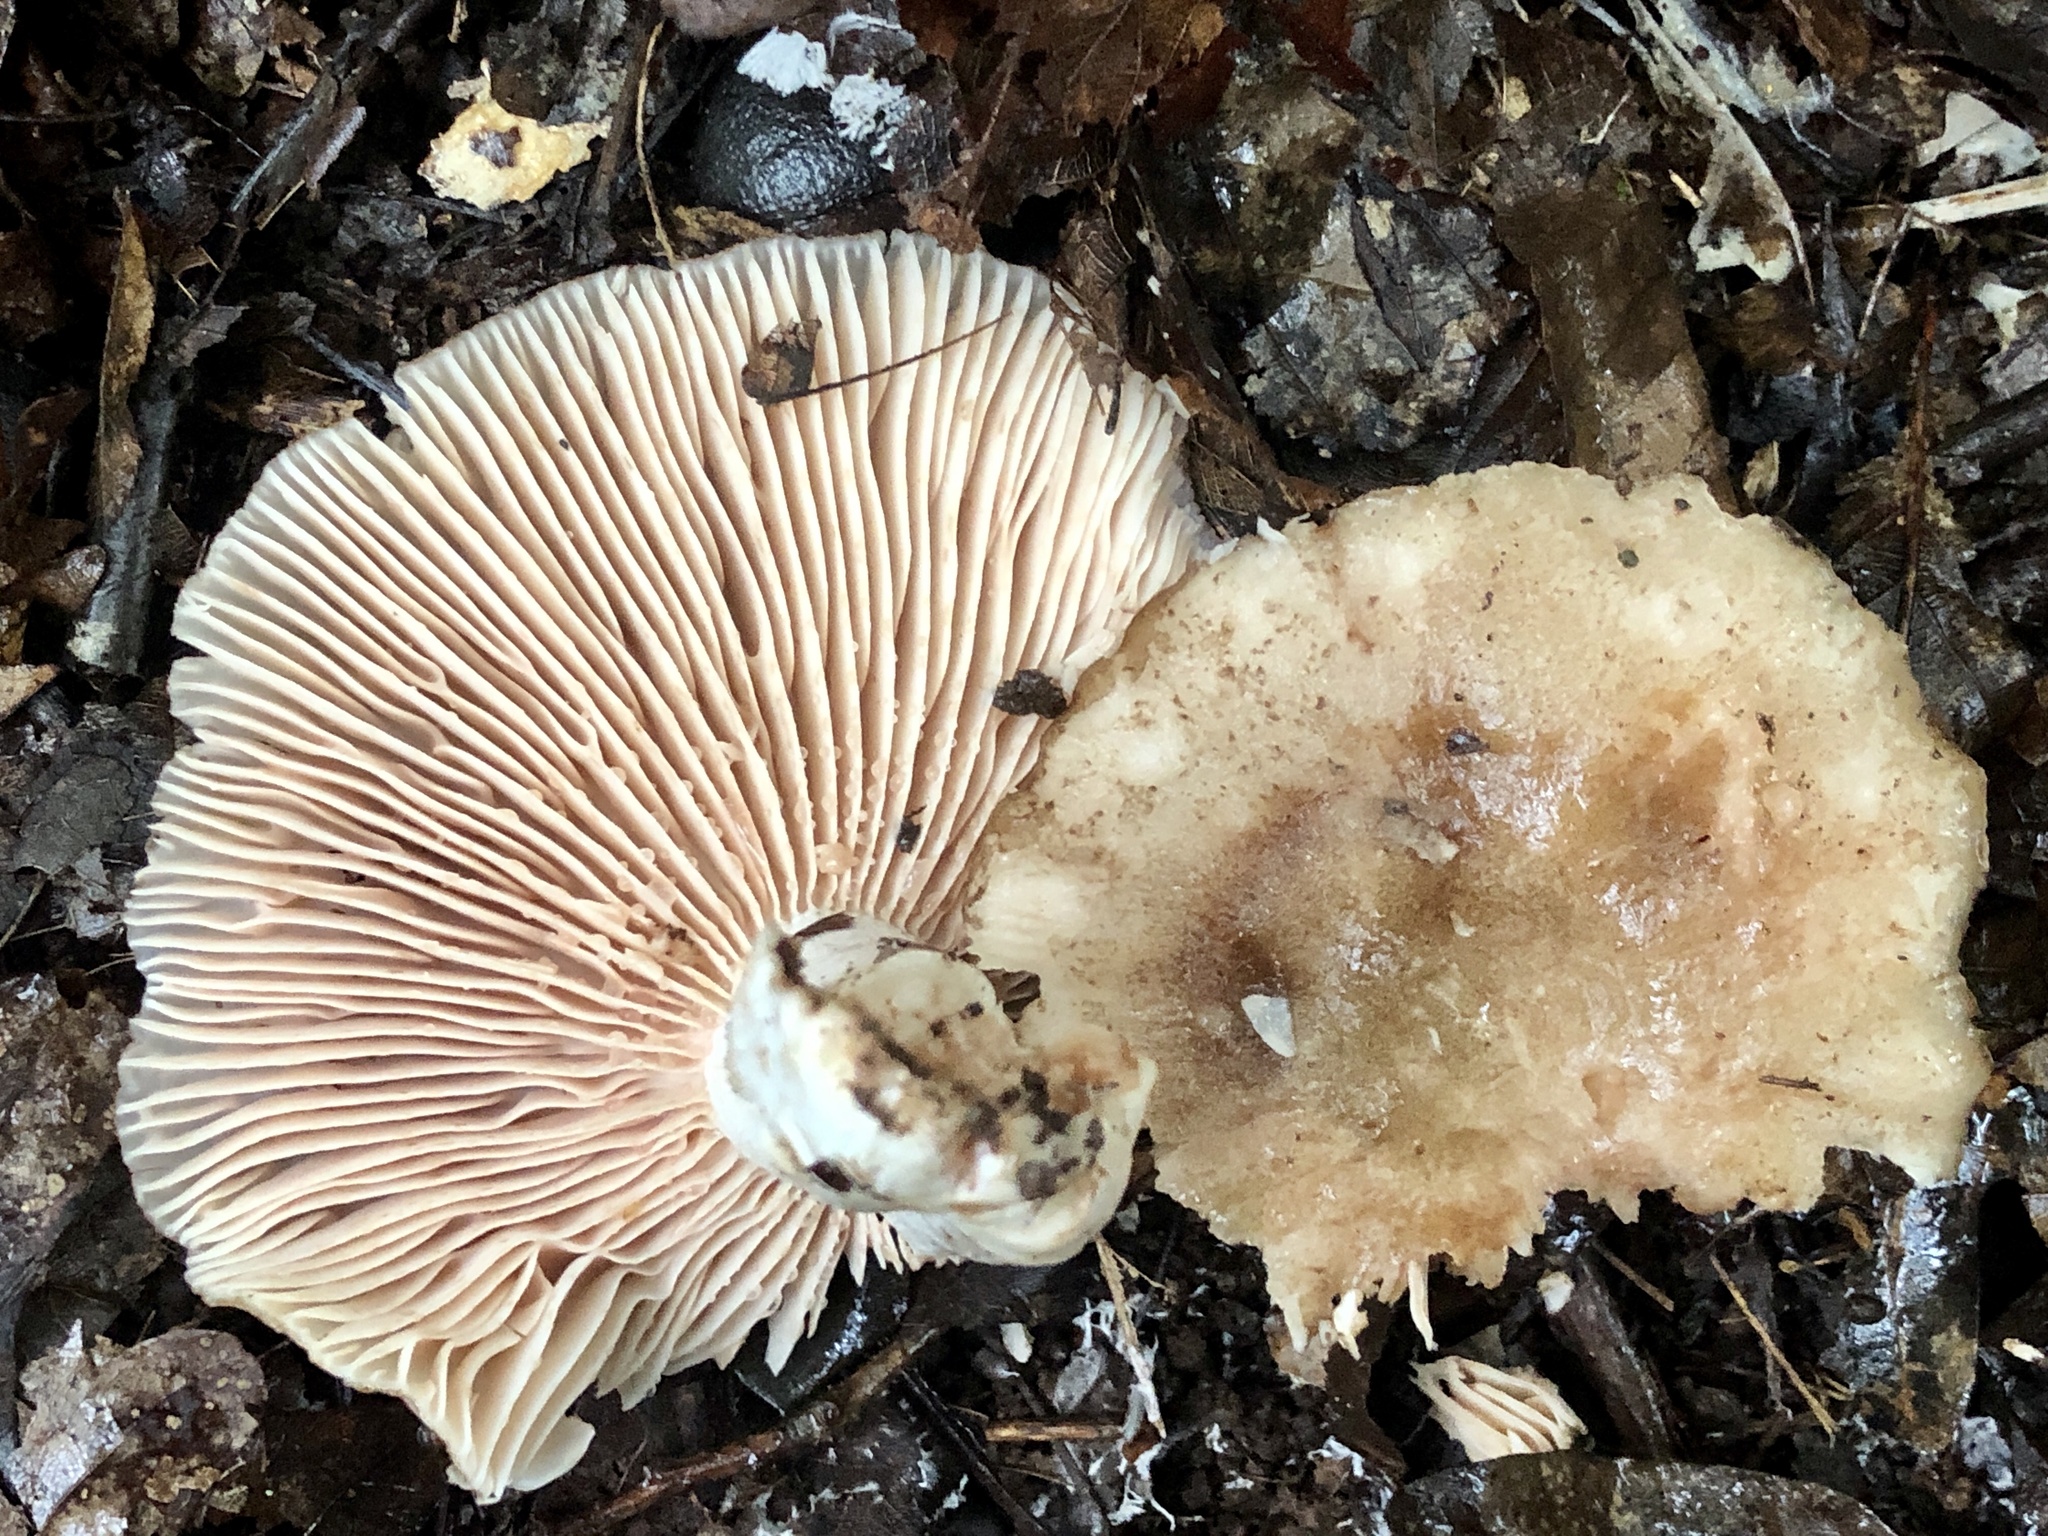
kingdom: Fungi
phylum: Basidiomycota
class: Agaricomycetes
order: Agaricales
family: Entolomataceae
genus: Entoloma
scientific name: Entoloma sinuatum
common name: Livid pinkgill
